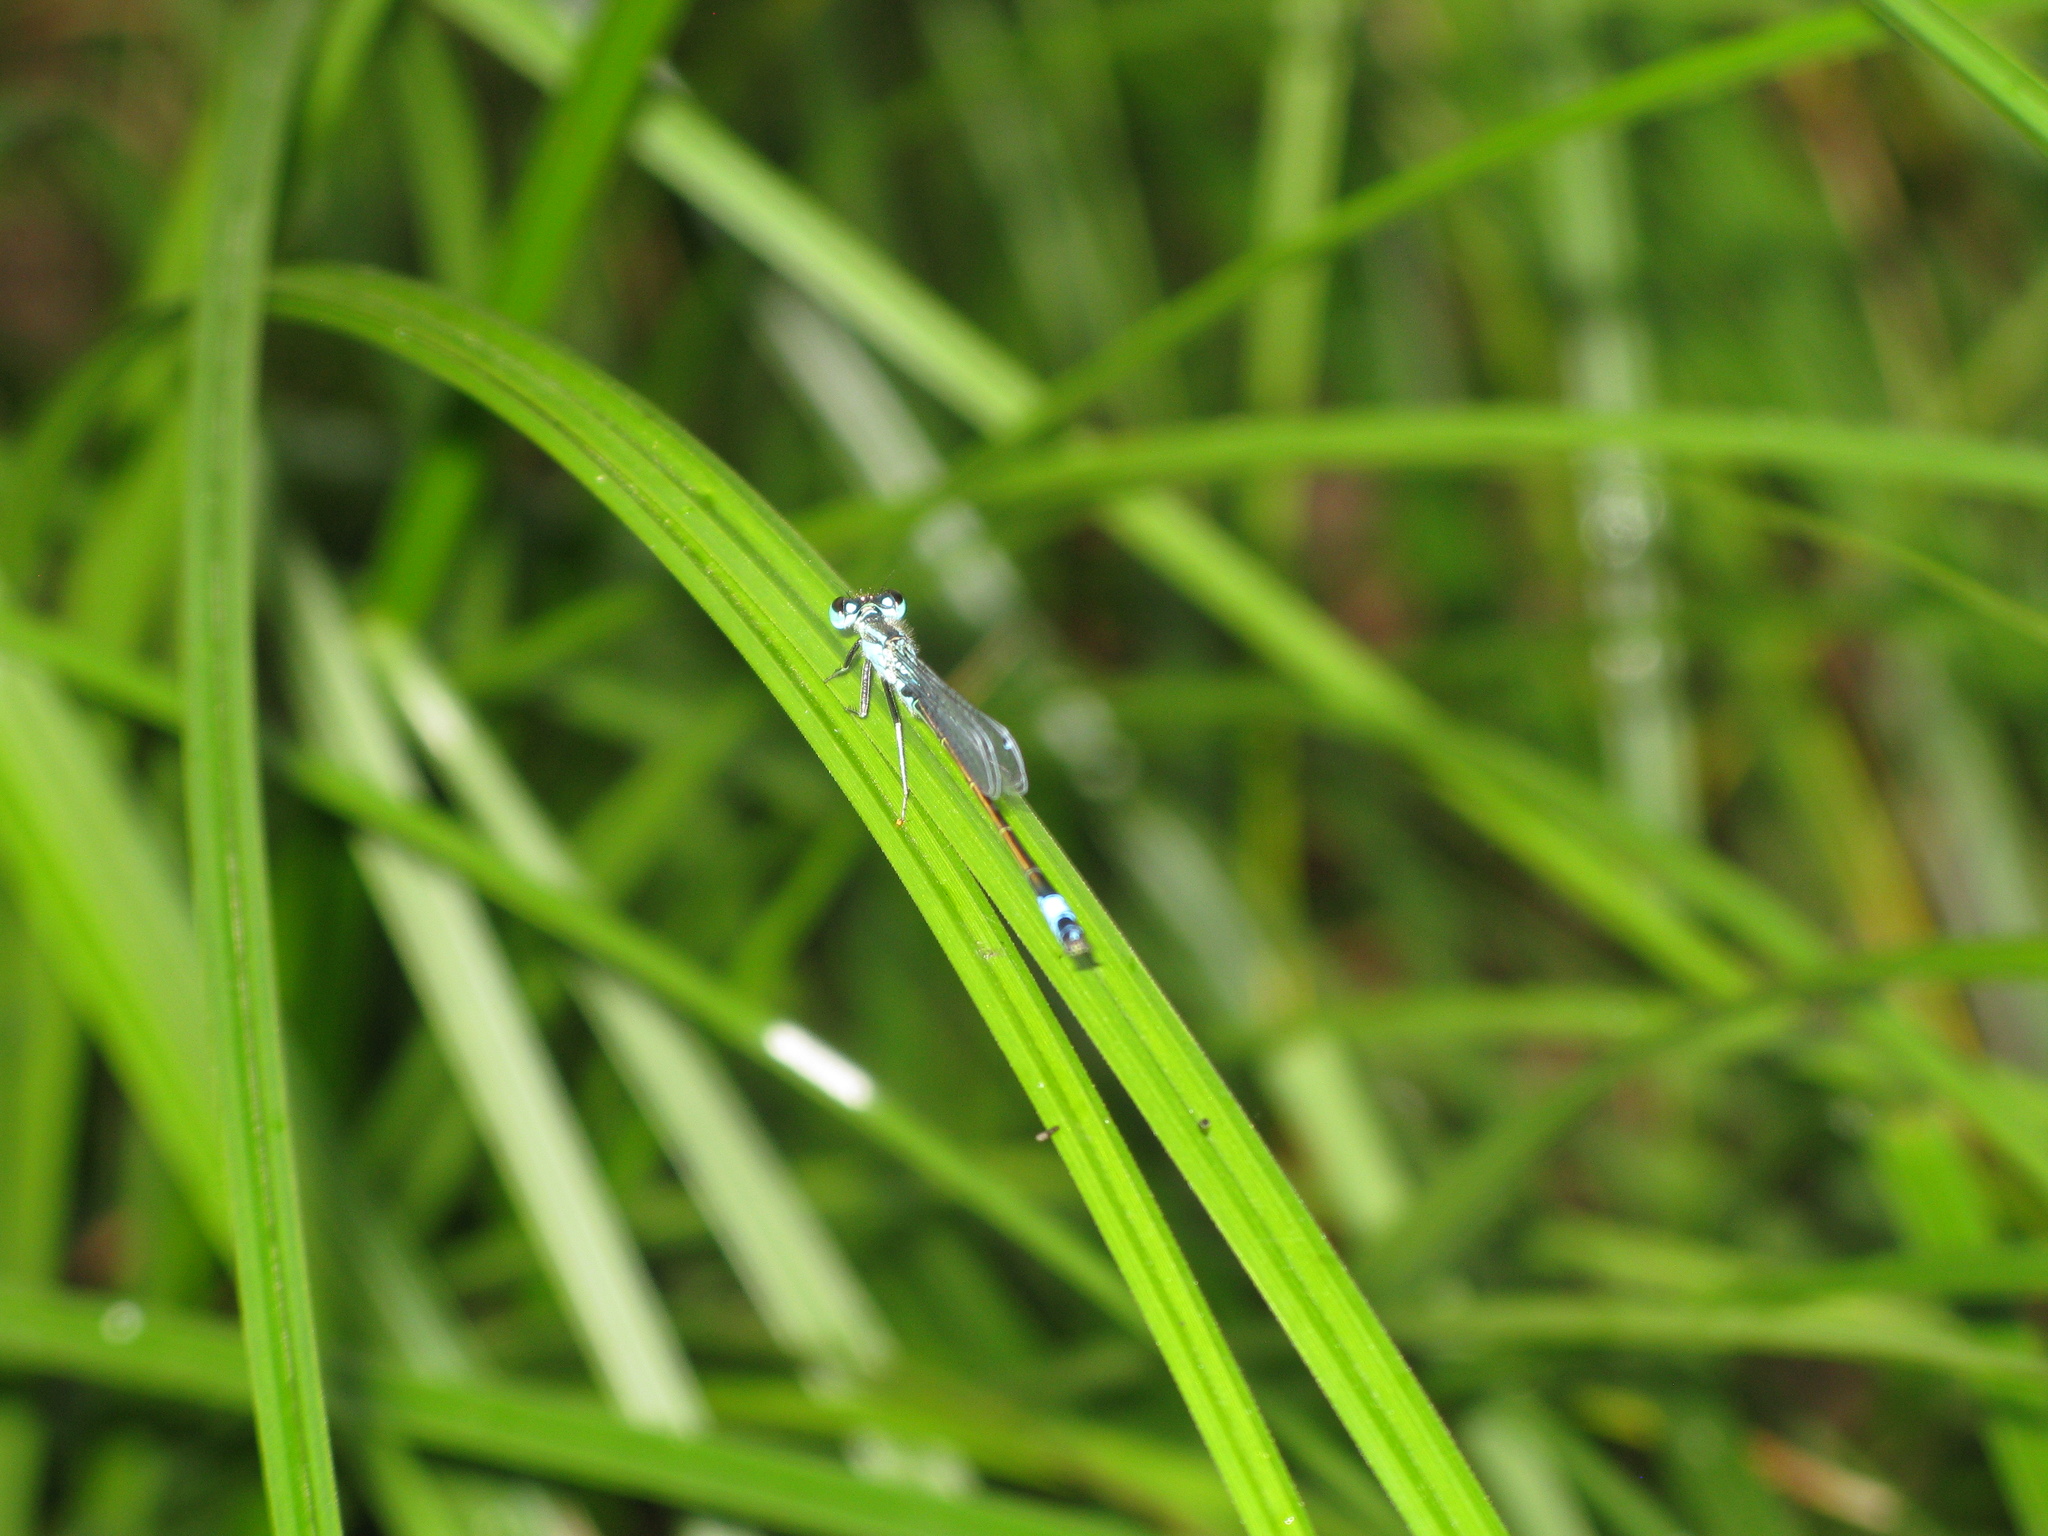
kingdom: Animalia
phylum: Arthropoda
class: Insecta
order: Odonata
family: Coenagrionidae
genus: Ischnura
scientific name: Ischnura elegans
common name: Blue-tailed damselfly
